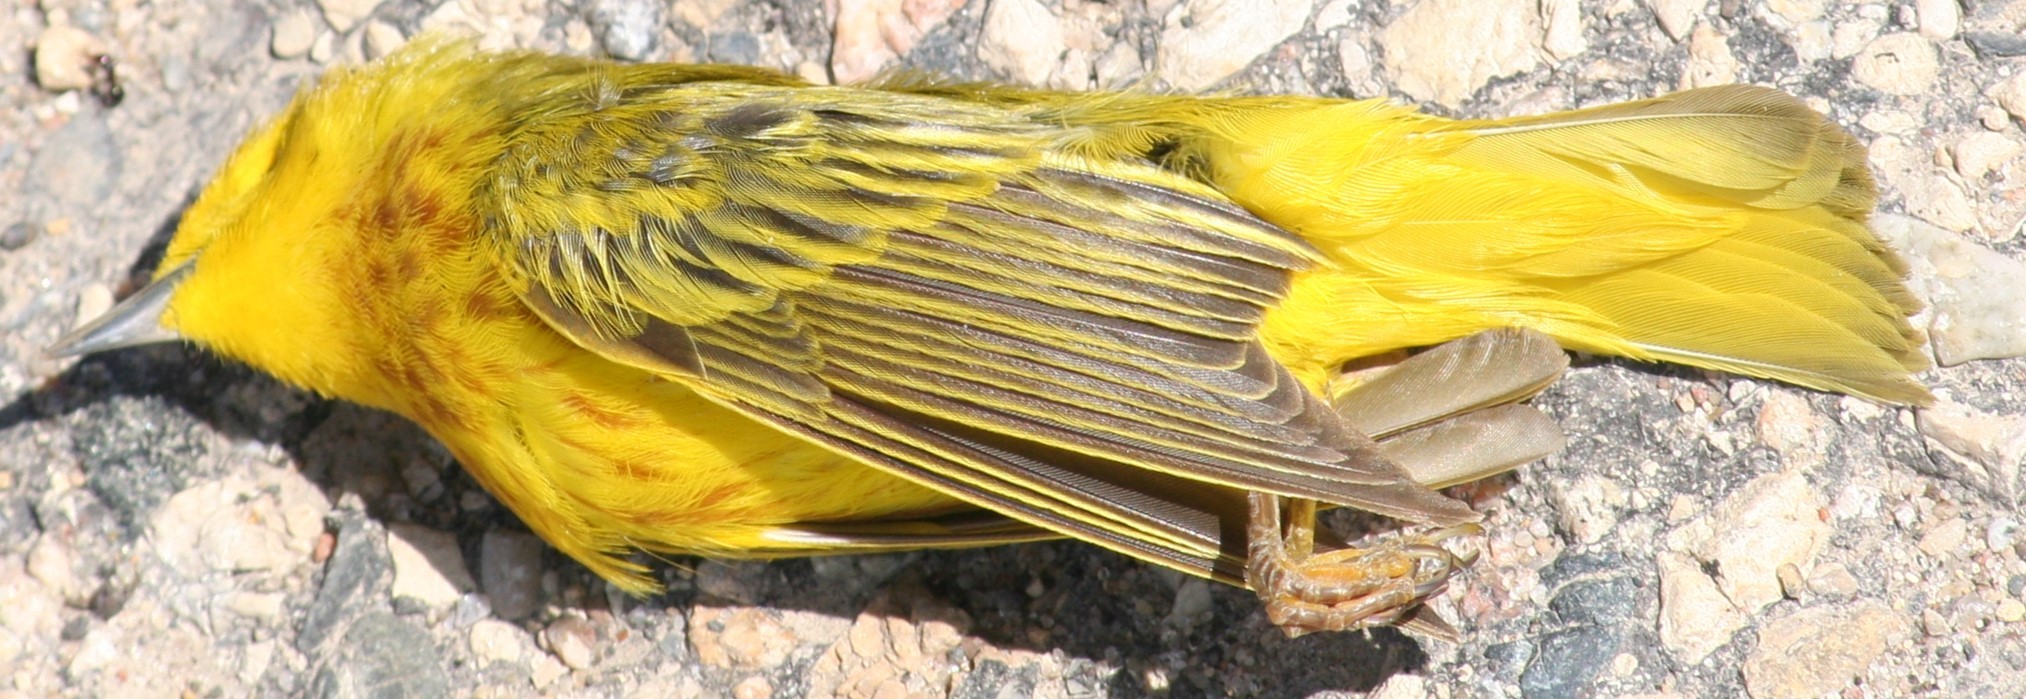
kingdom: Animalia
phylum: Chordata
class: Aves
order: Passeriformes
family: Parulidae
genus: Setophaga
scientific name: Setophaga petechia
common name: Yellow warbler
